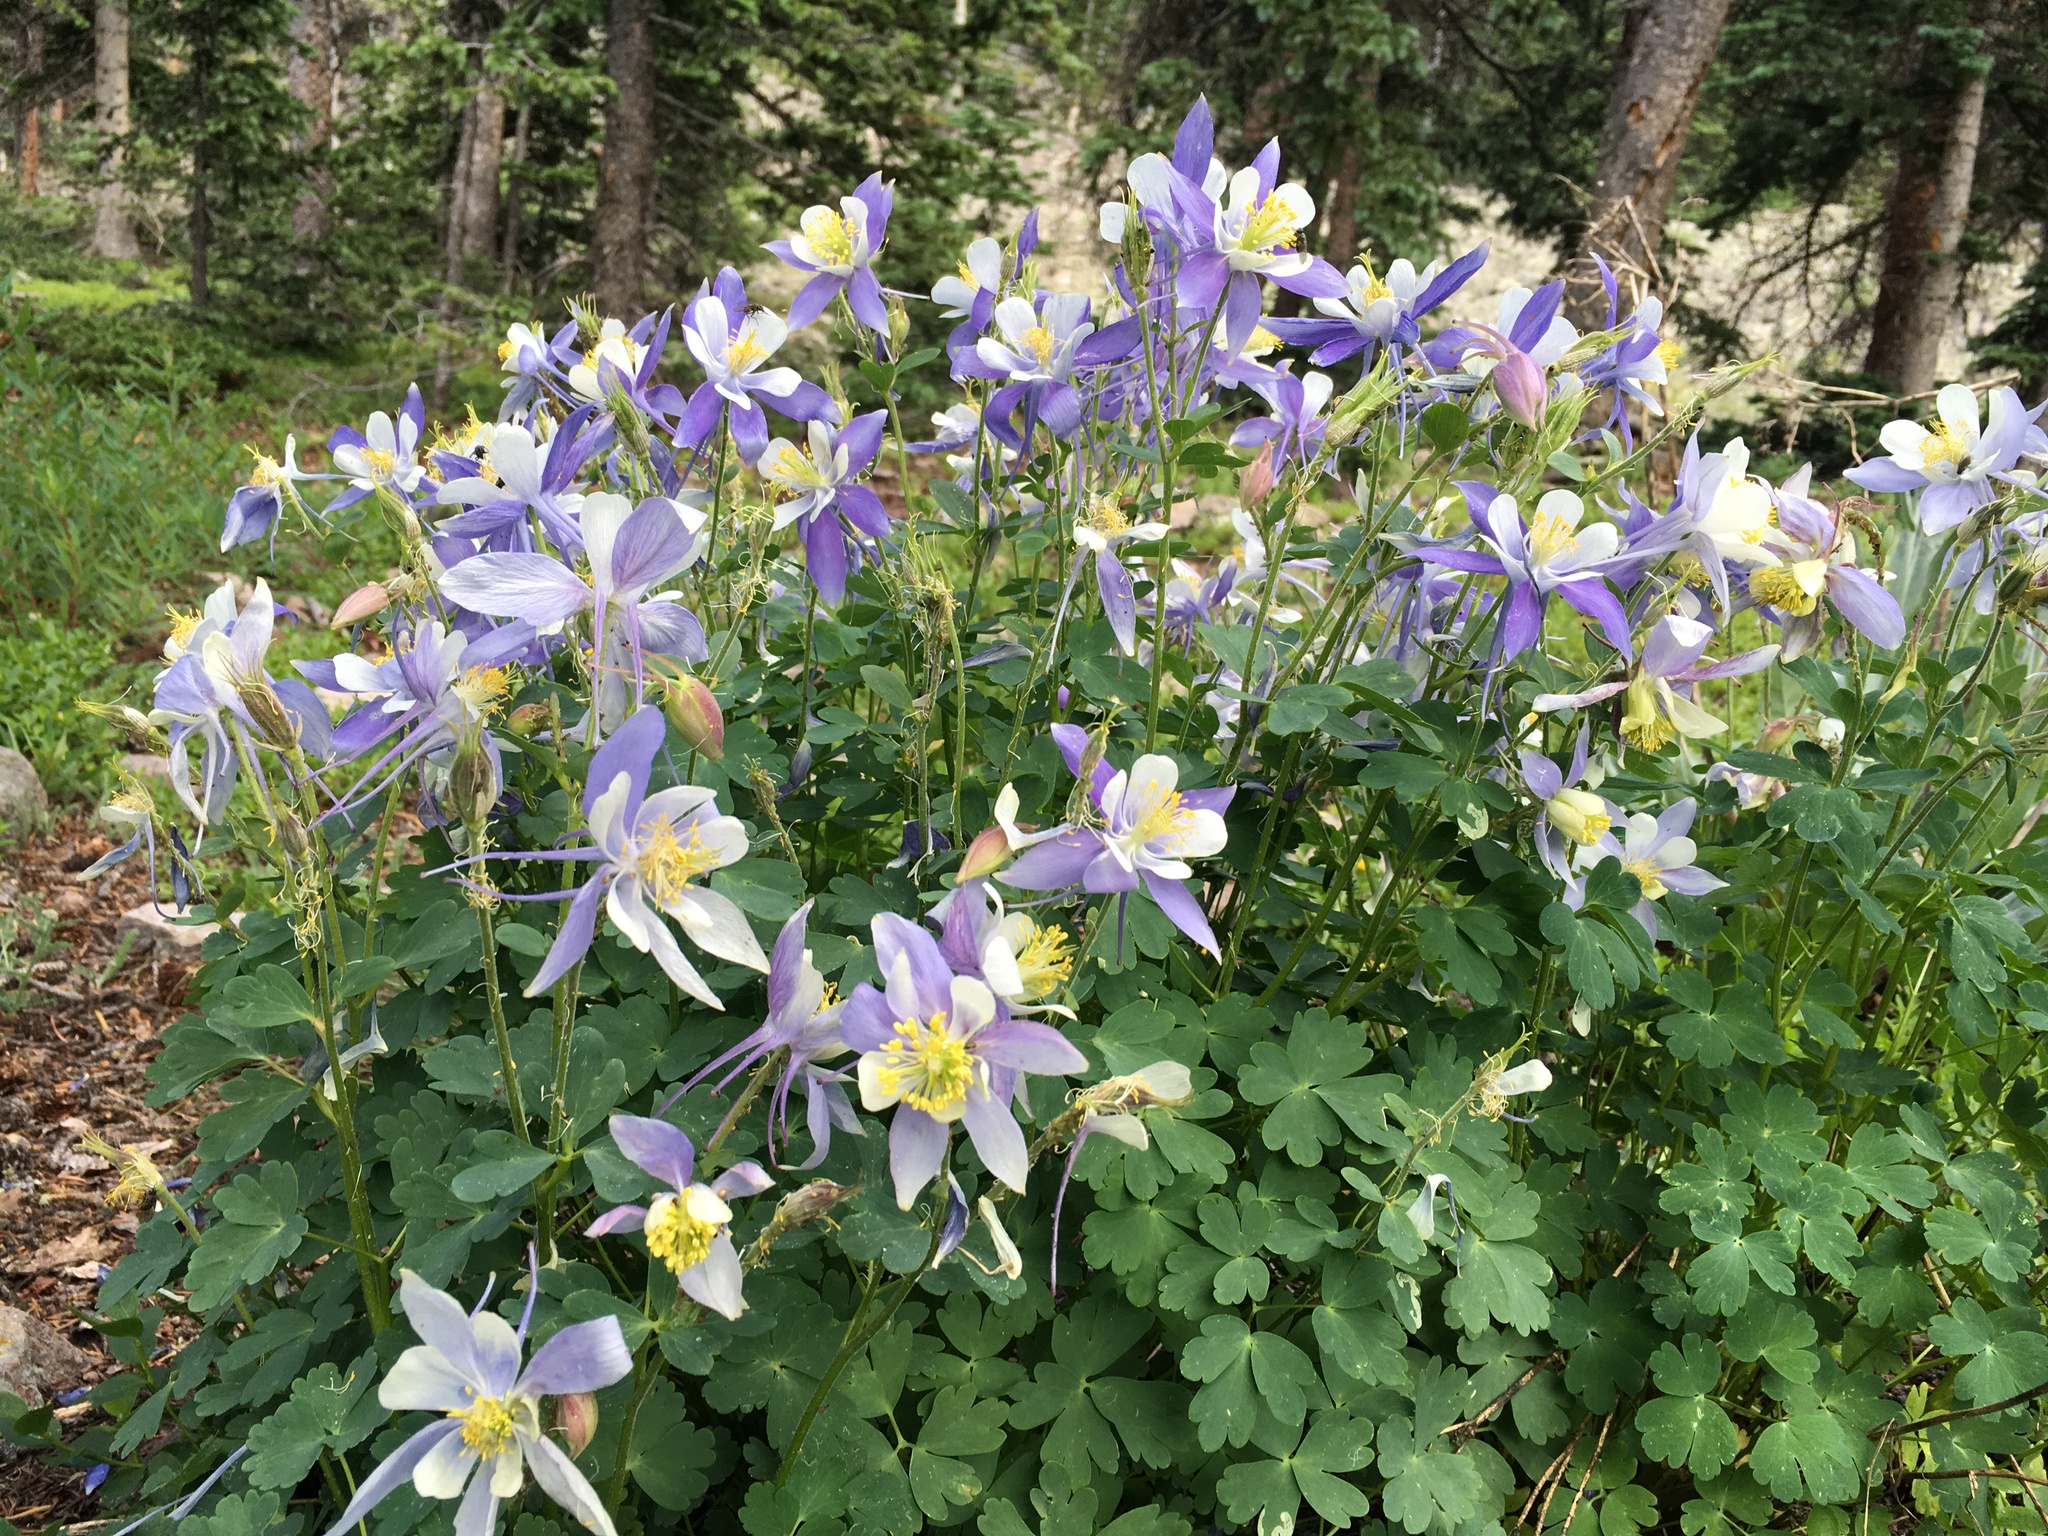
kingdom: Plantae
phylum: Tracheophyta
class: Magnoliopsida
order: Ranunculales
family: Ranunculaceae
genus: Aquilegia
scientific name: Aquilegia coerulea
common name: Rocky mountain columbine
